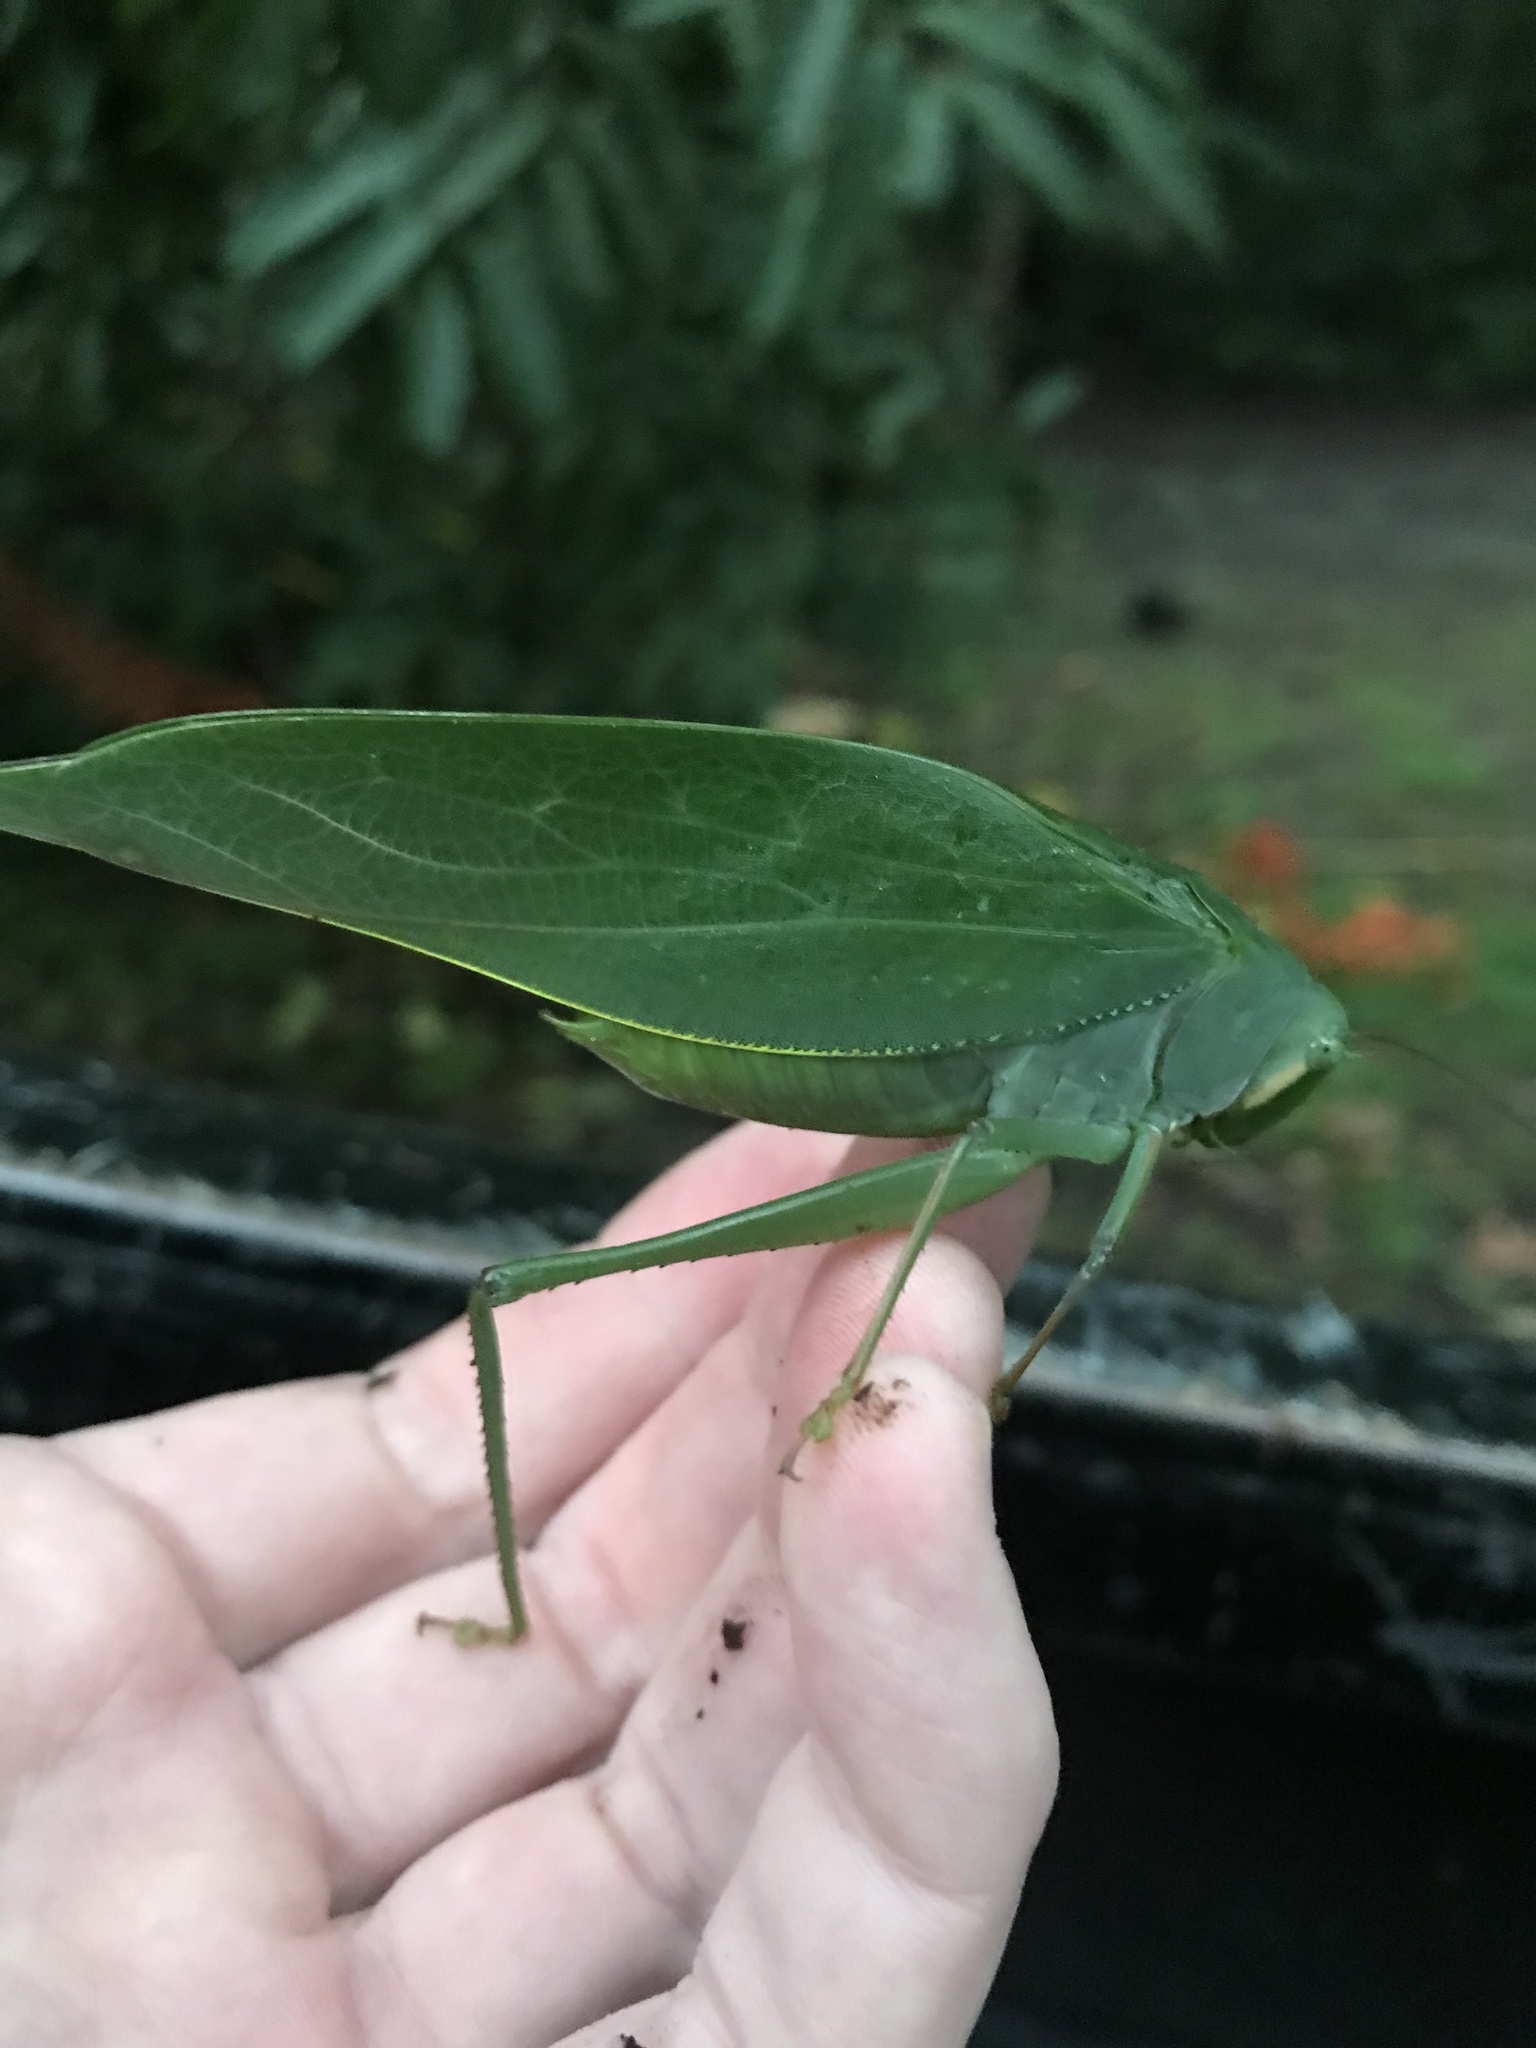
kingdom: Animalia
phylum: Arthropoda
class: Insecta
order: Orthoptera
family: Tettigoniidae
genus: Philophyllia
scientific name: Philophyllia ingens
